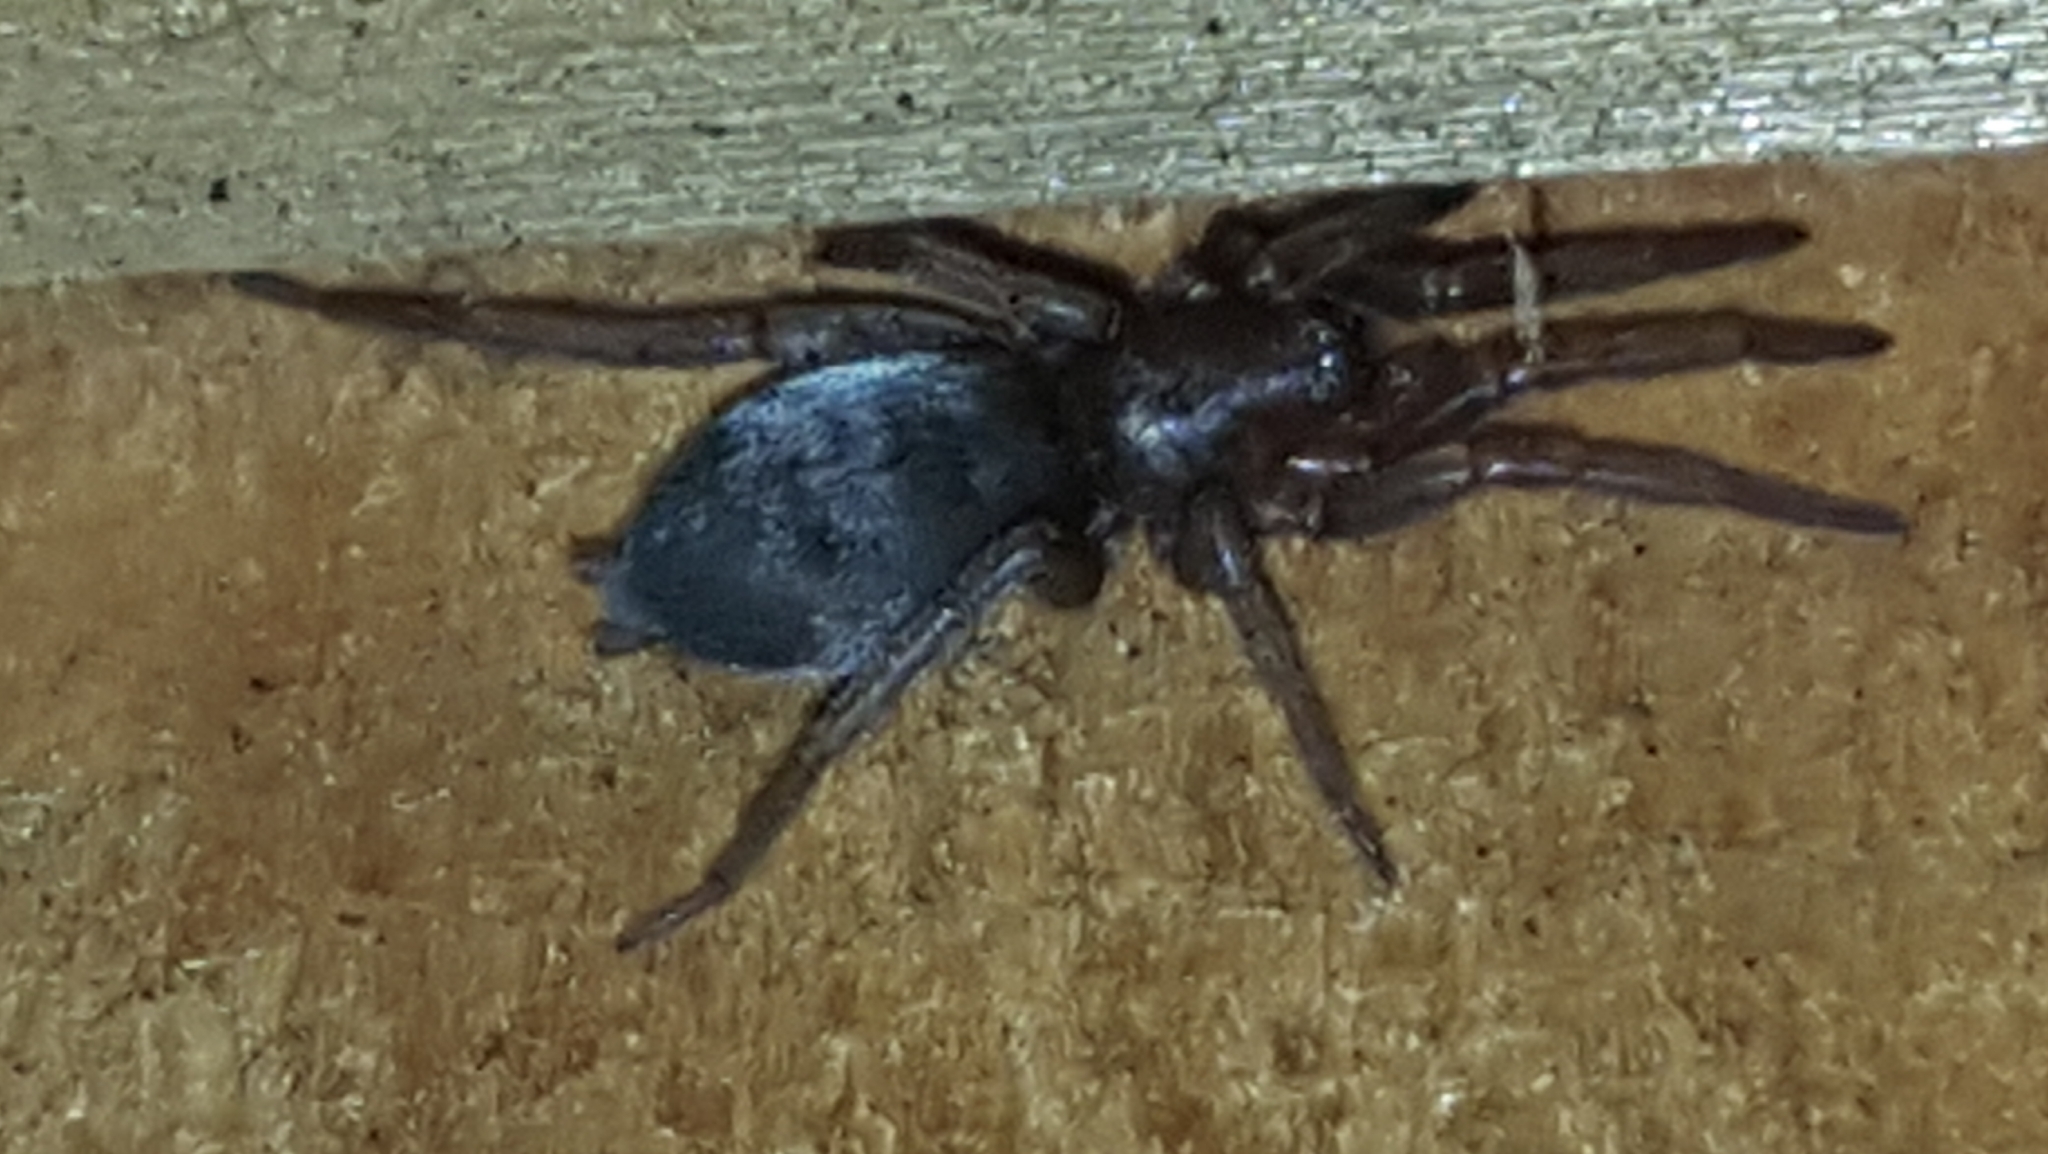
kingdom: Animalia
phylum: Arthropoda
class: Arachnida
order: Araneae
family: Gnaphosidae
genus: Scotophaeus
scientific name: Scotophaeus blackwalli
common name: Mouse spider
